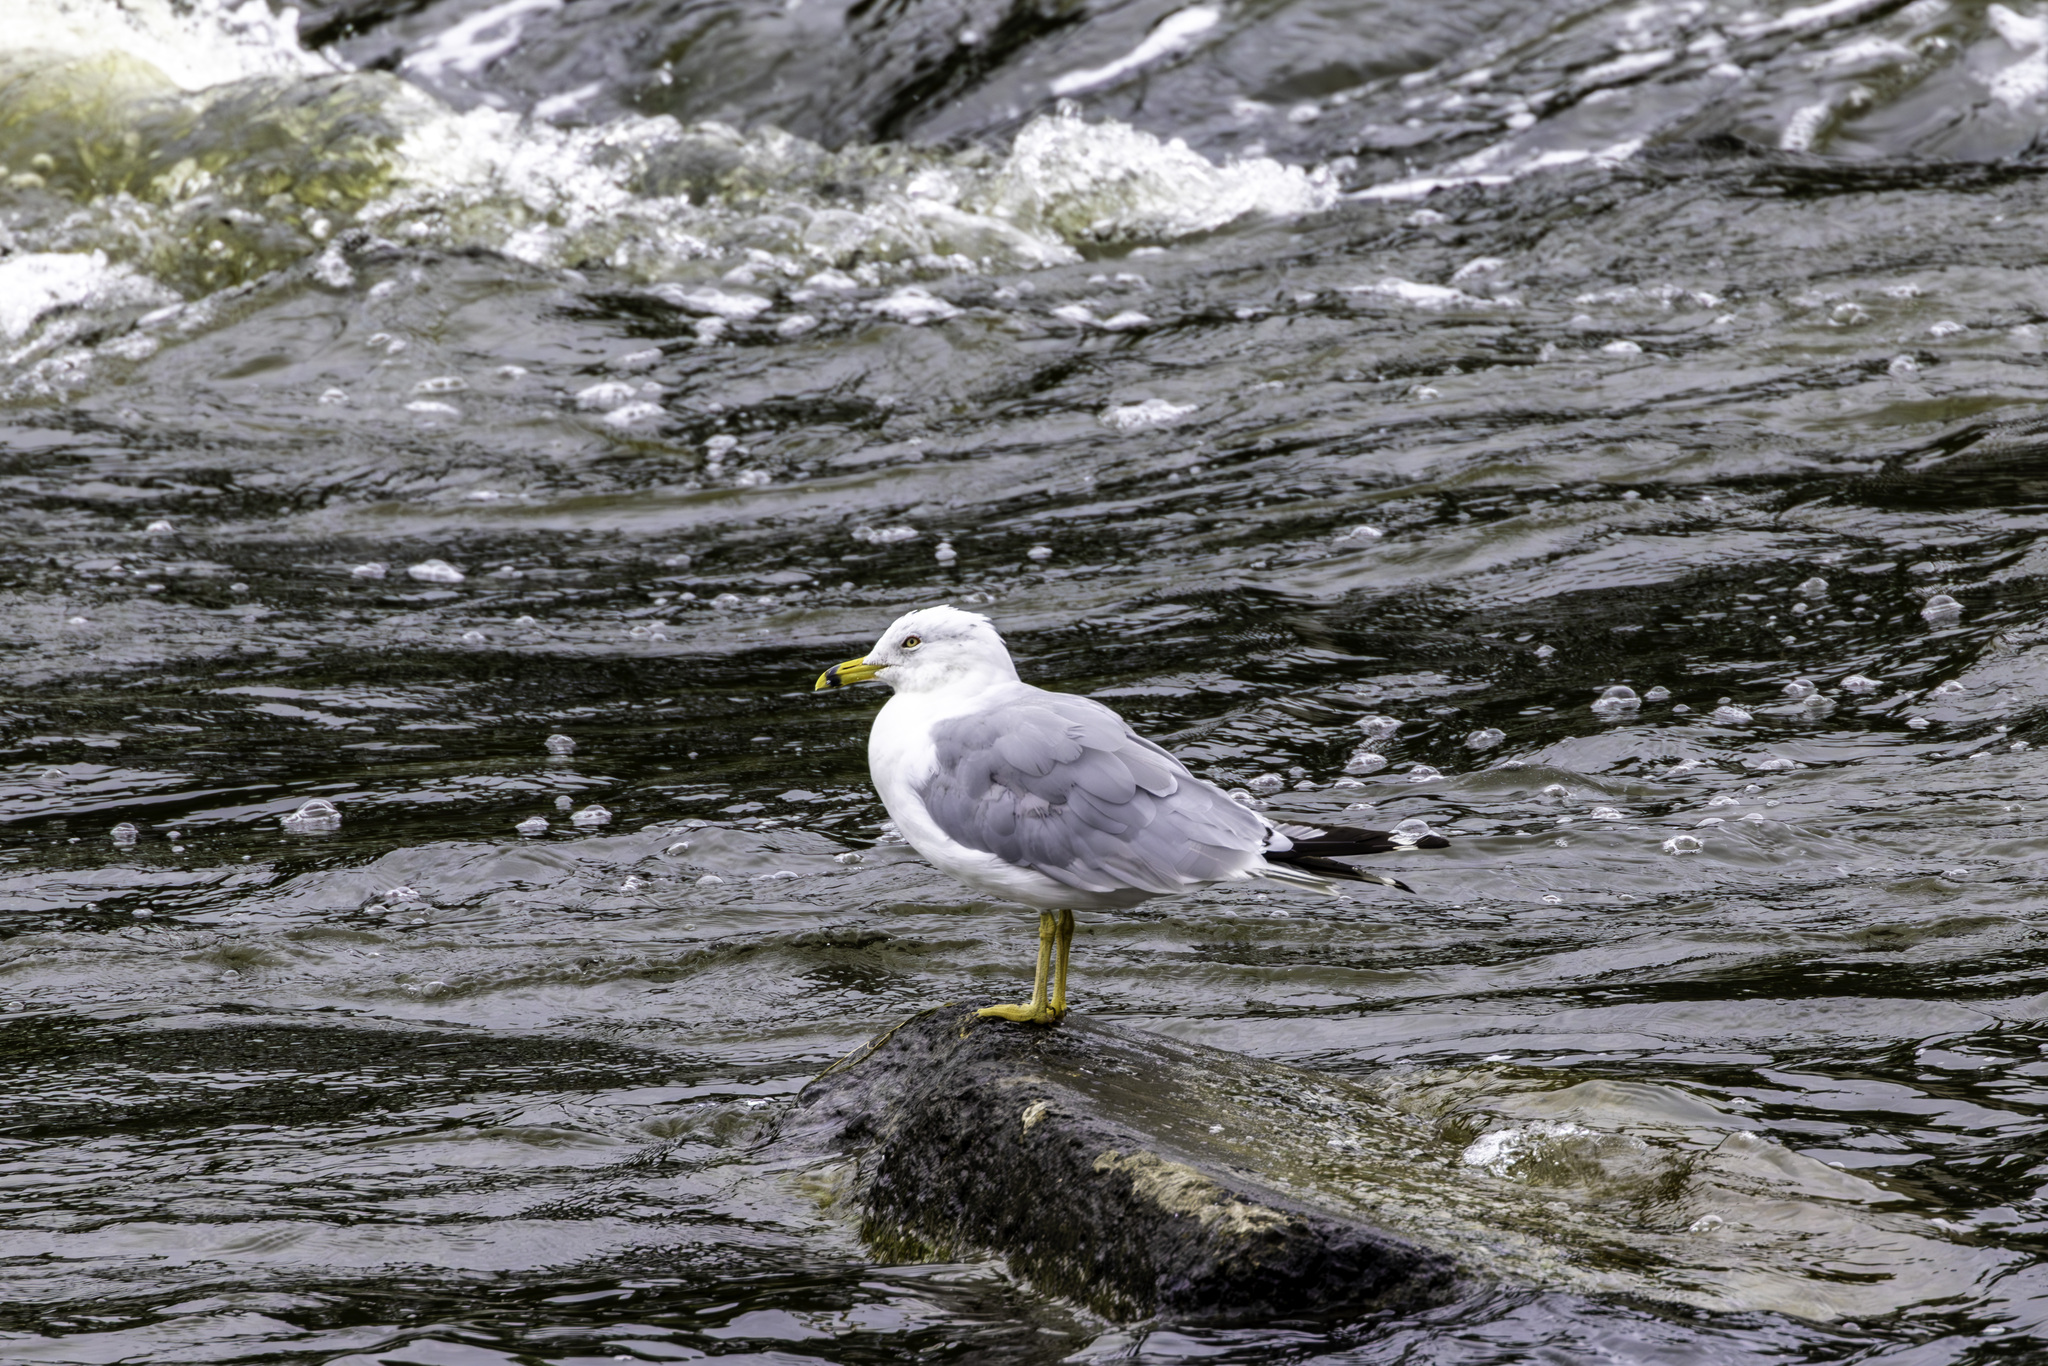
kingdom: Animalia
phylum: Chordata
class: Aves
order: Charadriiformes
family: Laridae
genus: Larus
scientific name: Larus delawarensis
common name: Ring-billed gull
